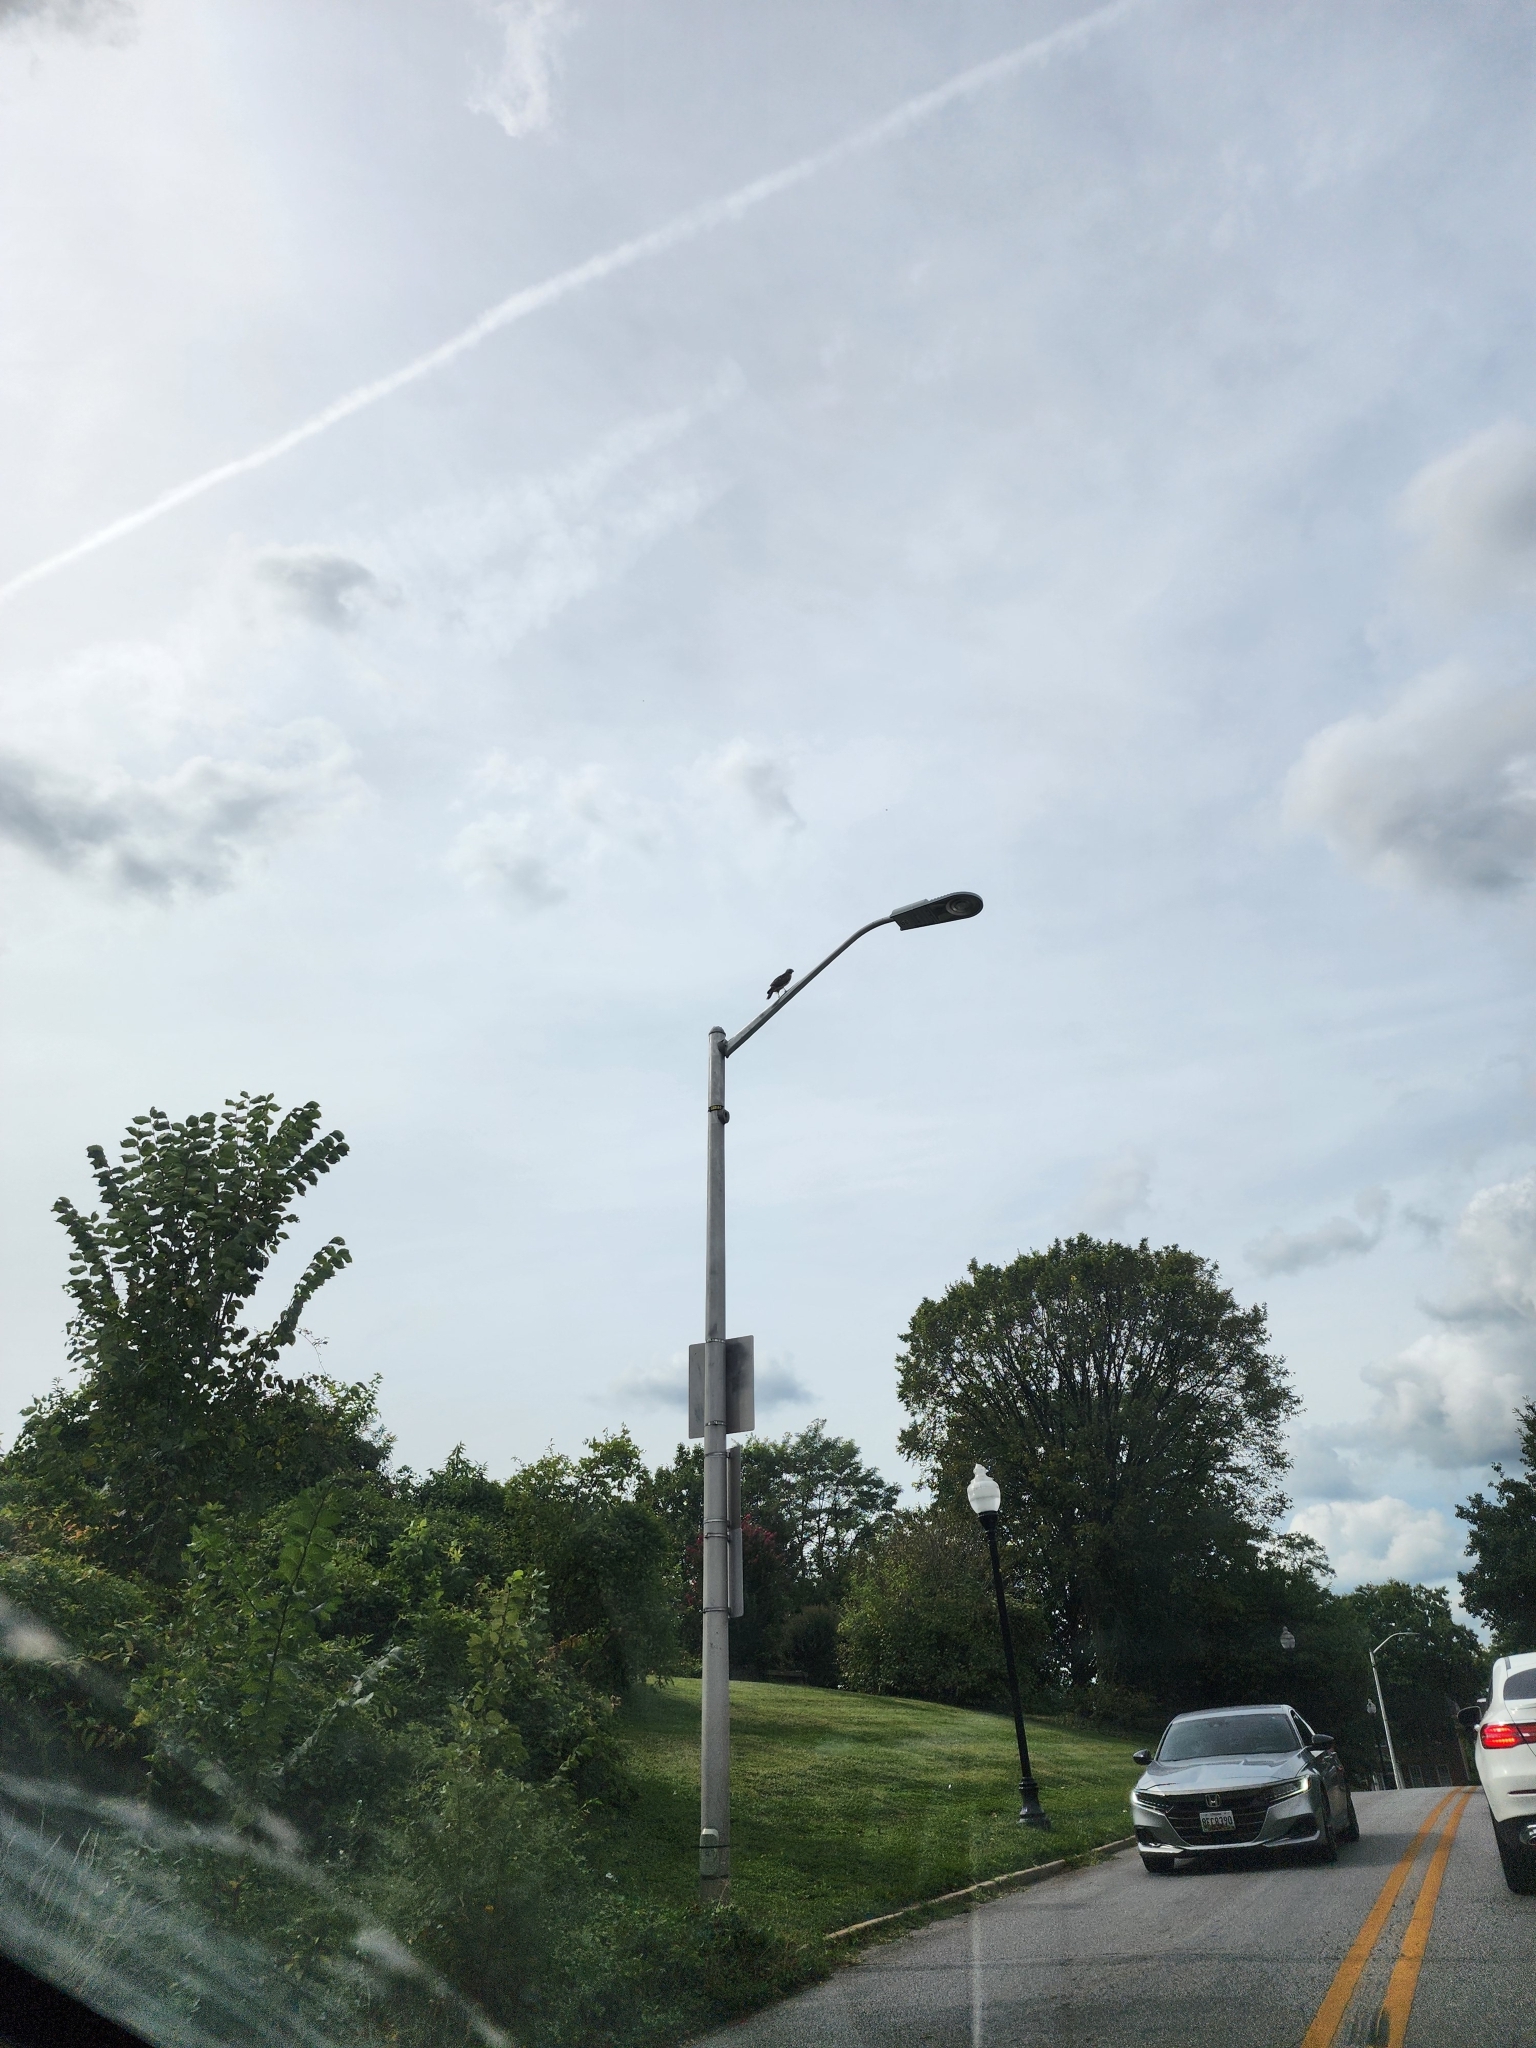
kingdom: Animalia
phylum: Chordata
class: Aves
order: Accipitriformes
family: Accipitridae
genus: Buteo
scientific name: Buteo lineatus
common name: Red-shouldered hawk
